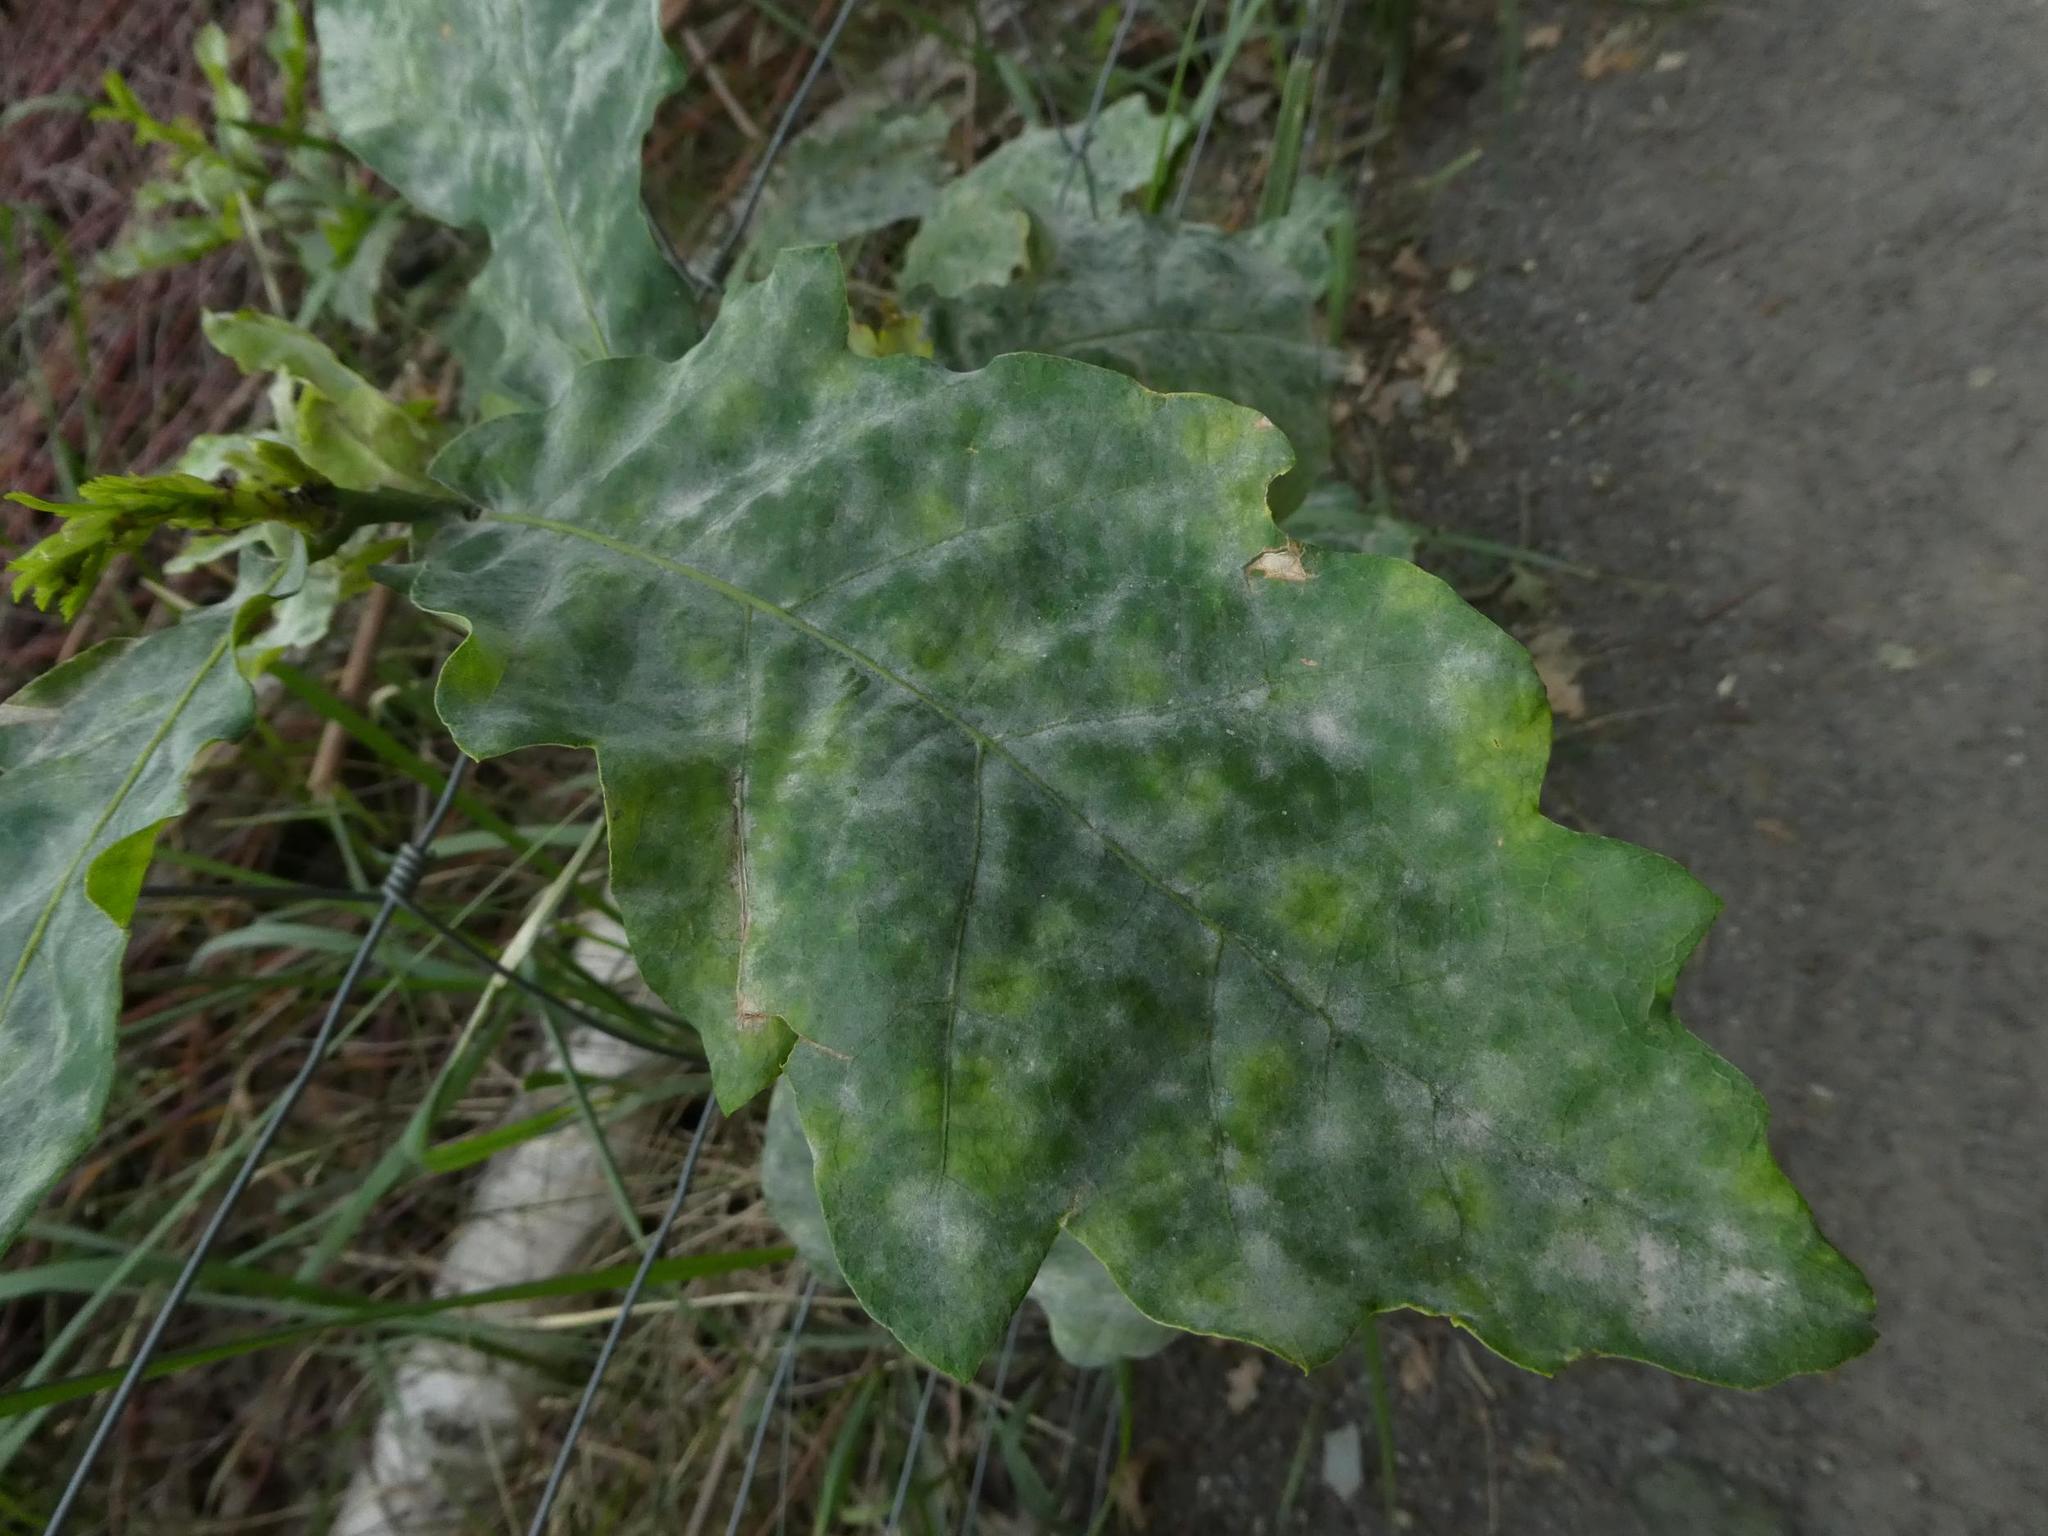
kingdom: Fungi
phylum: Ascomycota
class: Leotiomycetes
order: Helotiales
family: Erysiphaceae
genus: Erysiphe
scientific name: Erysiphe
